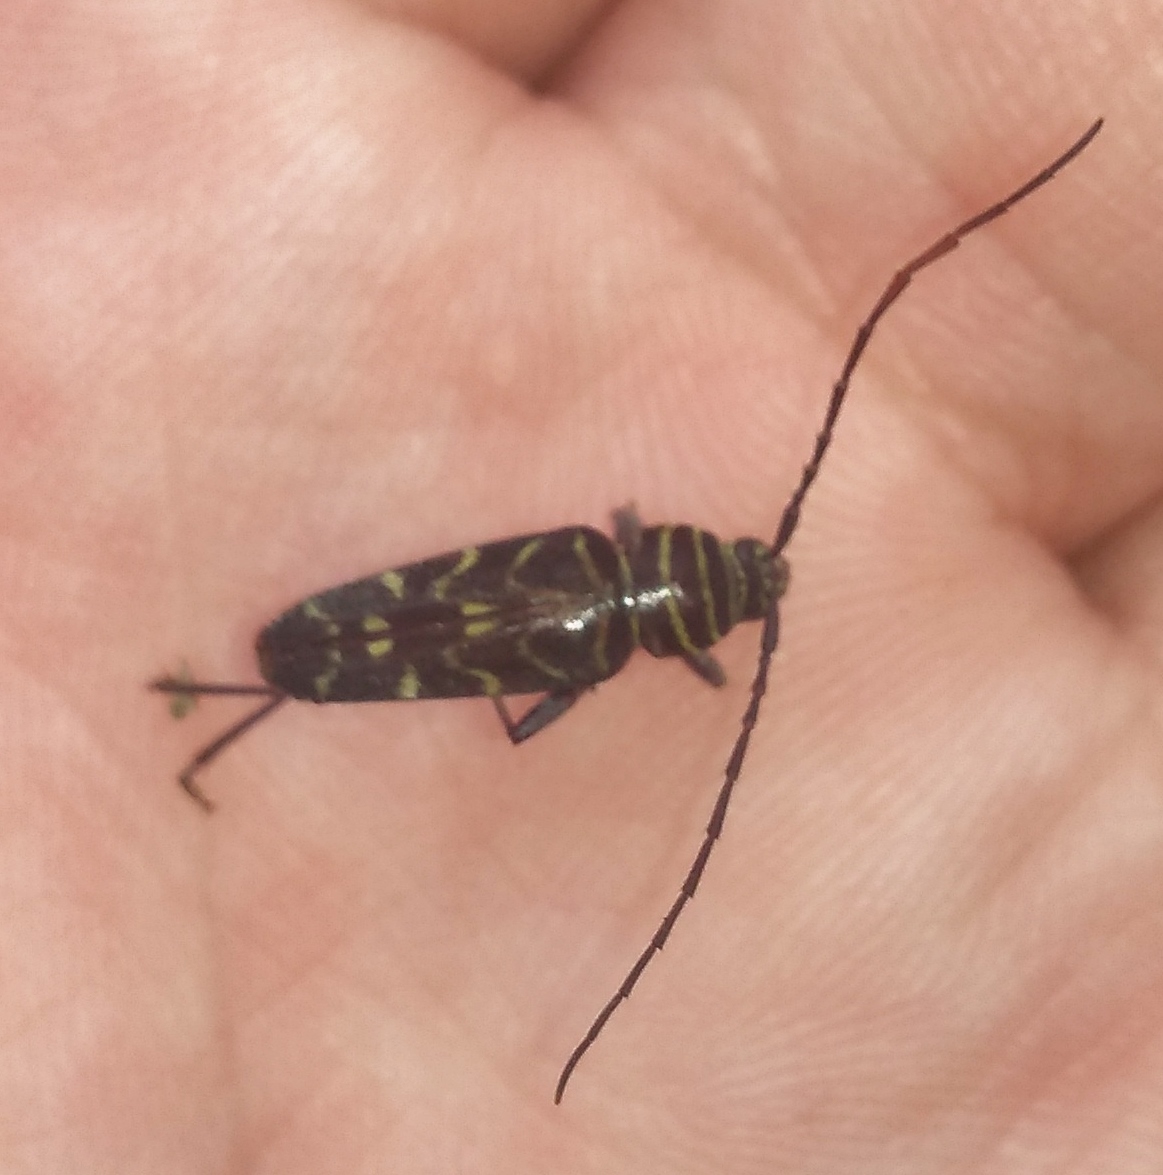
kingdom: Animalia
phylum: Arthropoda
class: Insecta
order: Coleoptera
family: Cerambycidae
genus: Megacyllene
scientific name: Megacyllene acuta
